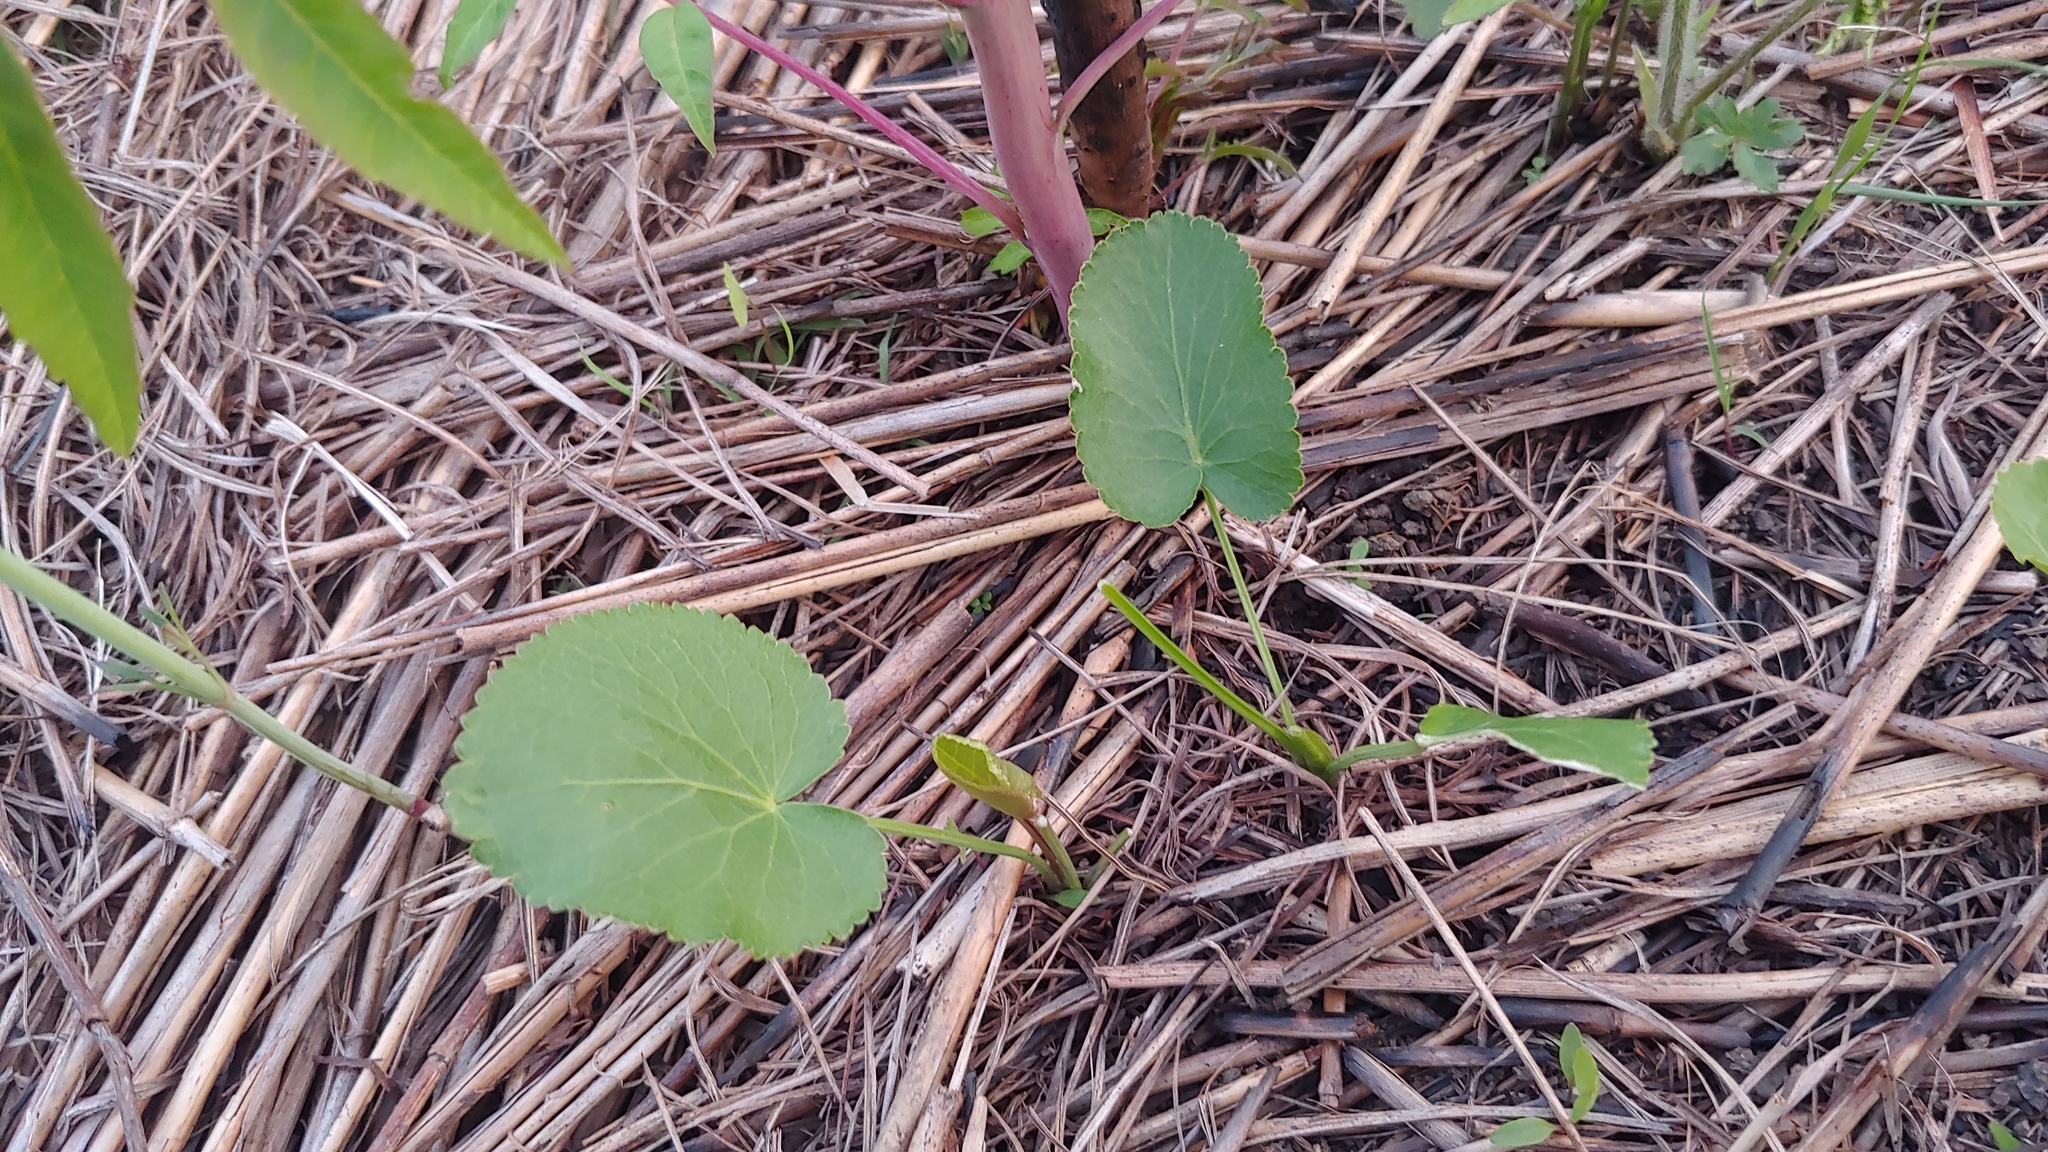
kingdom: Plantae
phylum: Tracheophyta
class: Magnoliopsida
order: Apiales
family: Apiaceae
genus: Zizia
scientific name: Zizia aptera
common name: Heart-leaved alexanders
